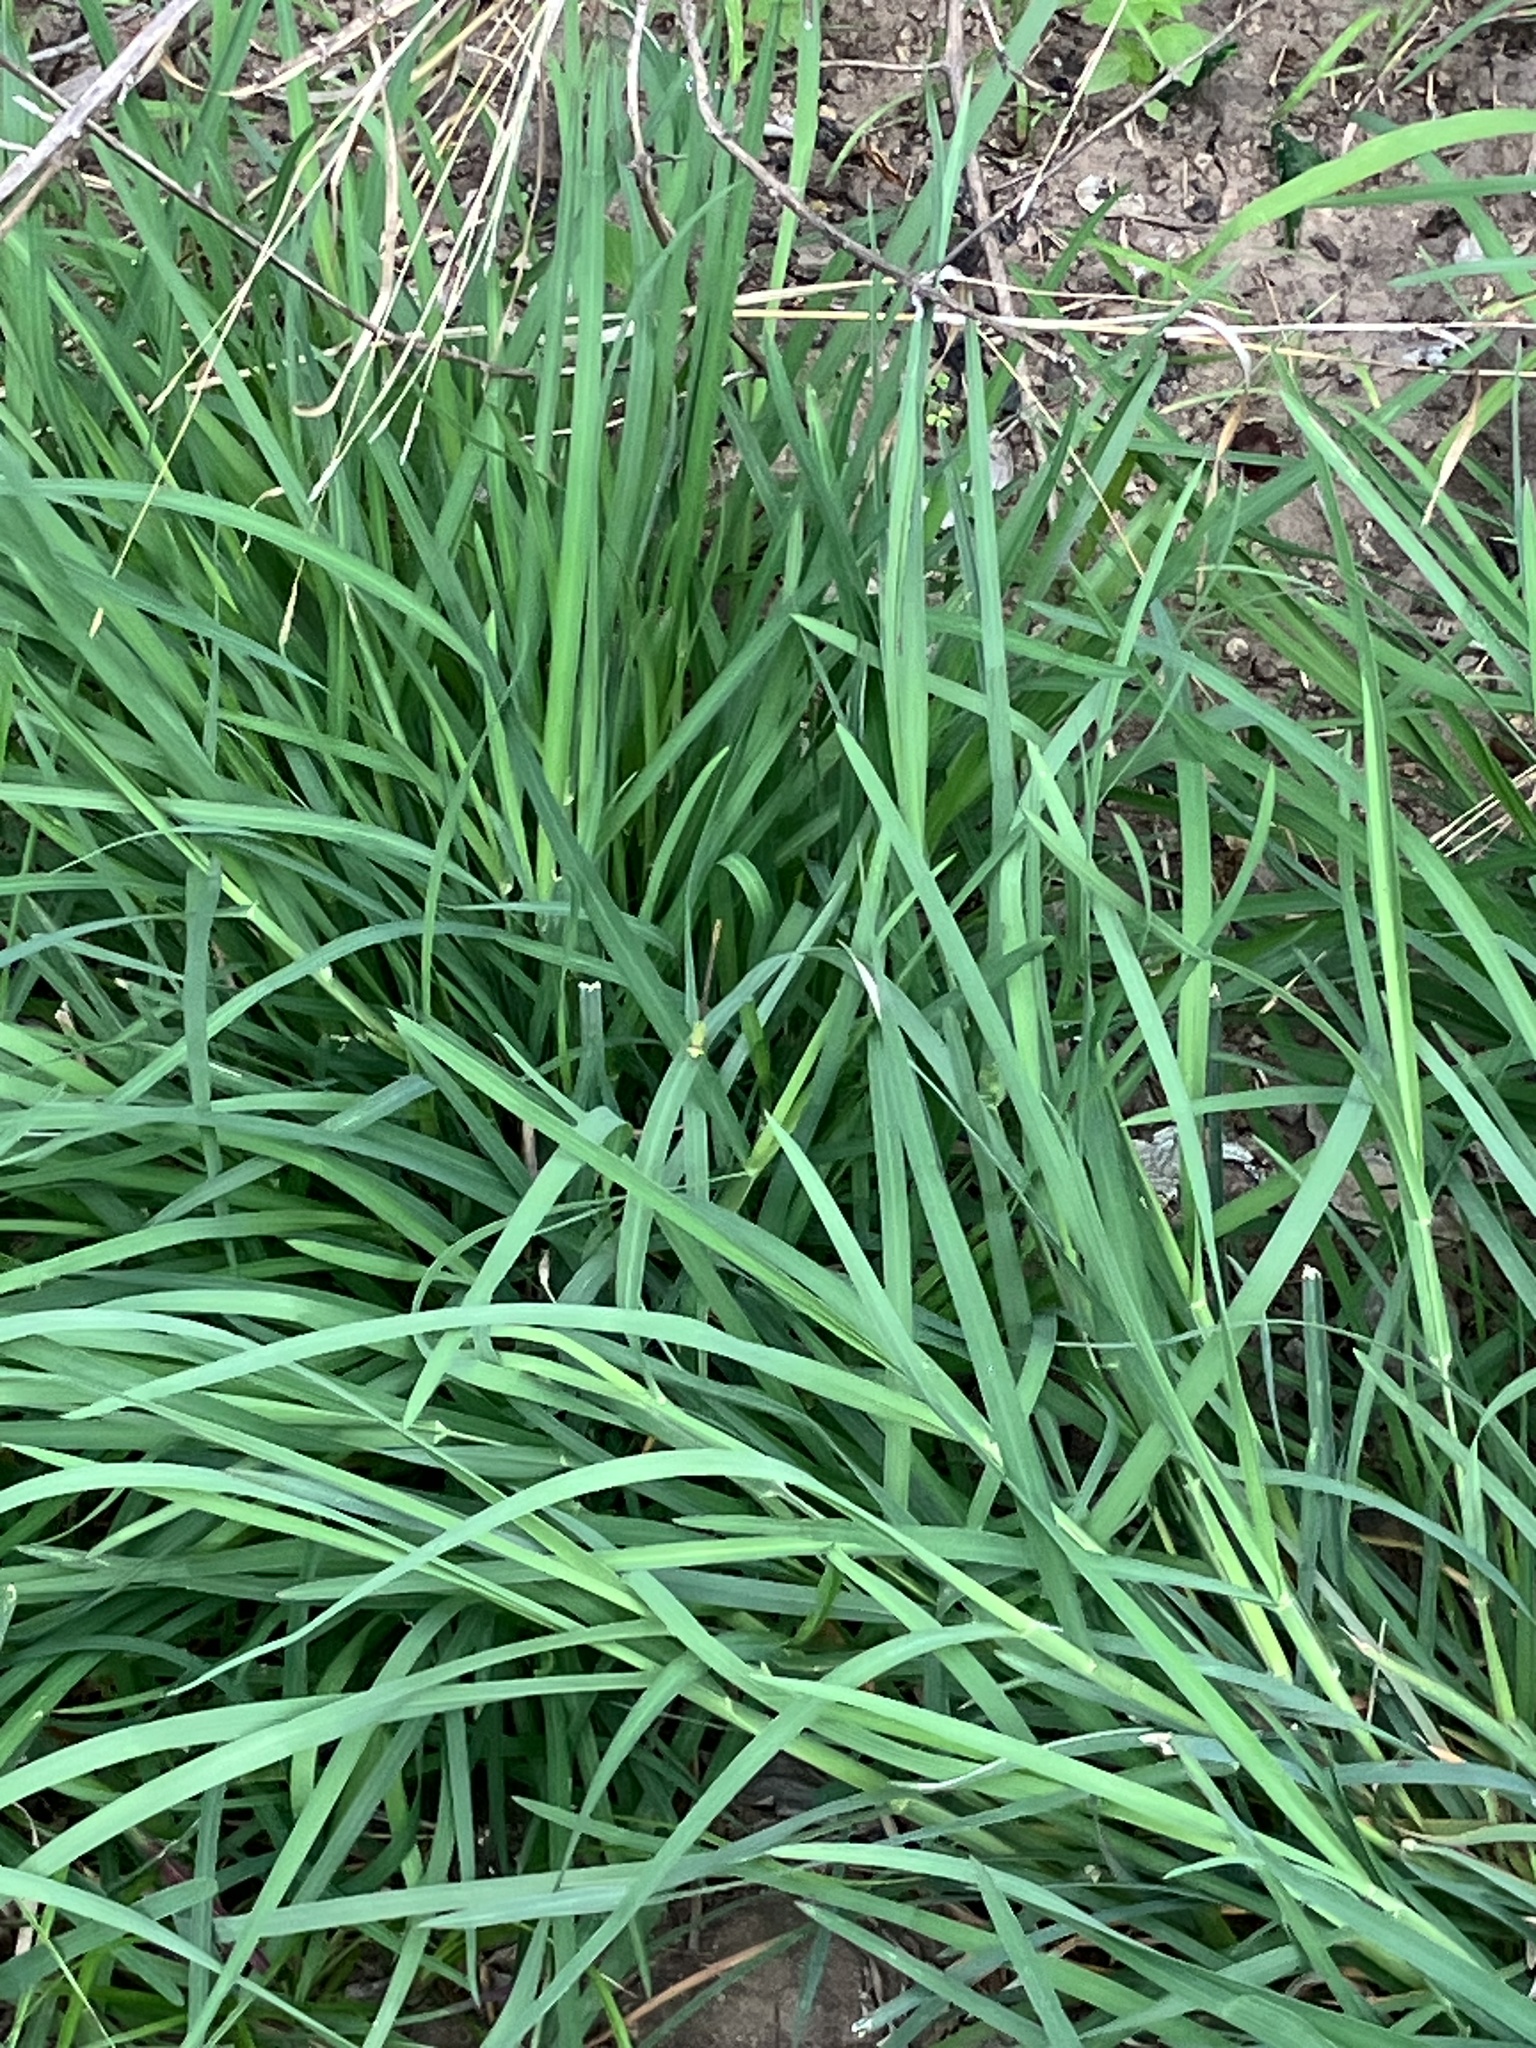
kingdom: Animalia
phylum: Arthropoda
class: Insecta
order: Odonata
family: Coenagrionidae
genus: Ceriagrion
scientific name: Ceriagrion coromandelianum
